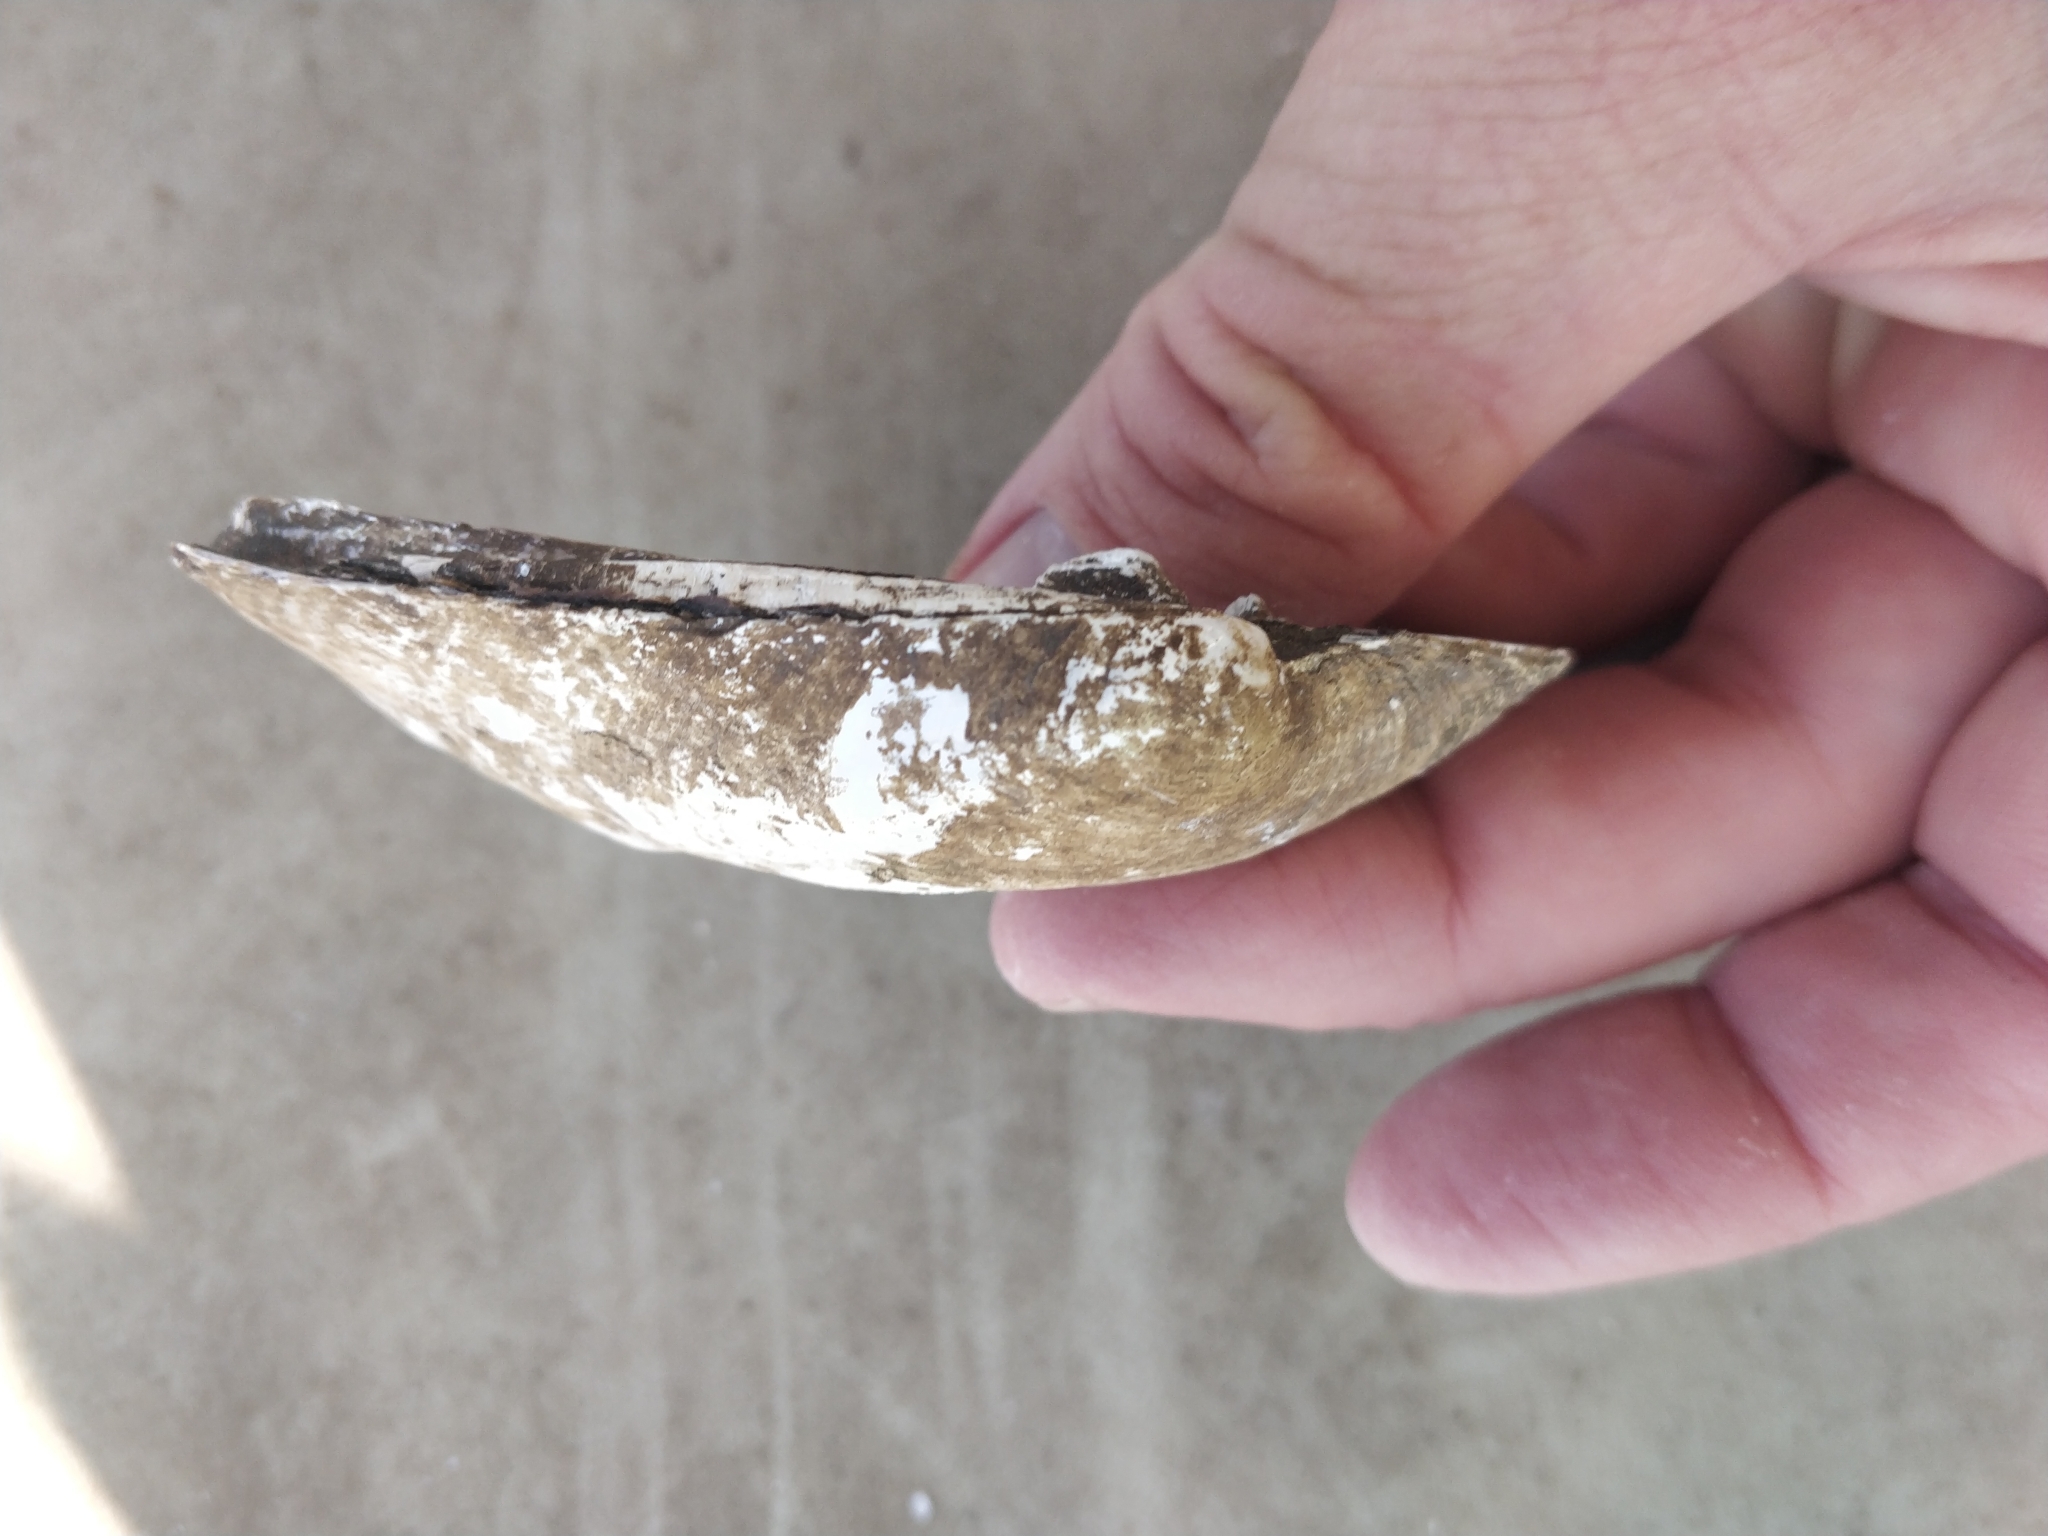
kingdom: Animalia
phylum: Mollusca
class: Bivalvia
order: Unionida
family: Unionidae
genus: Amblema
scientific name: Amblema plicata
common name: Threeridge
